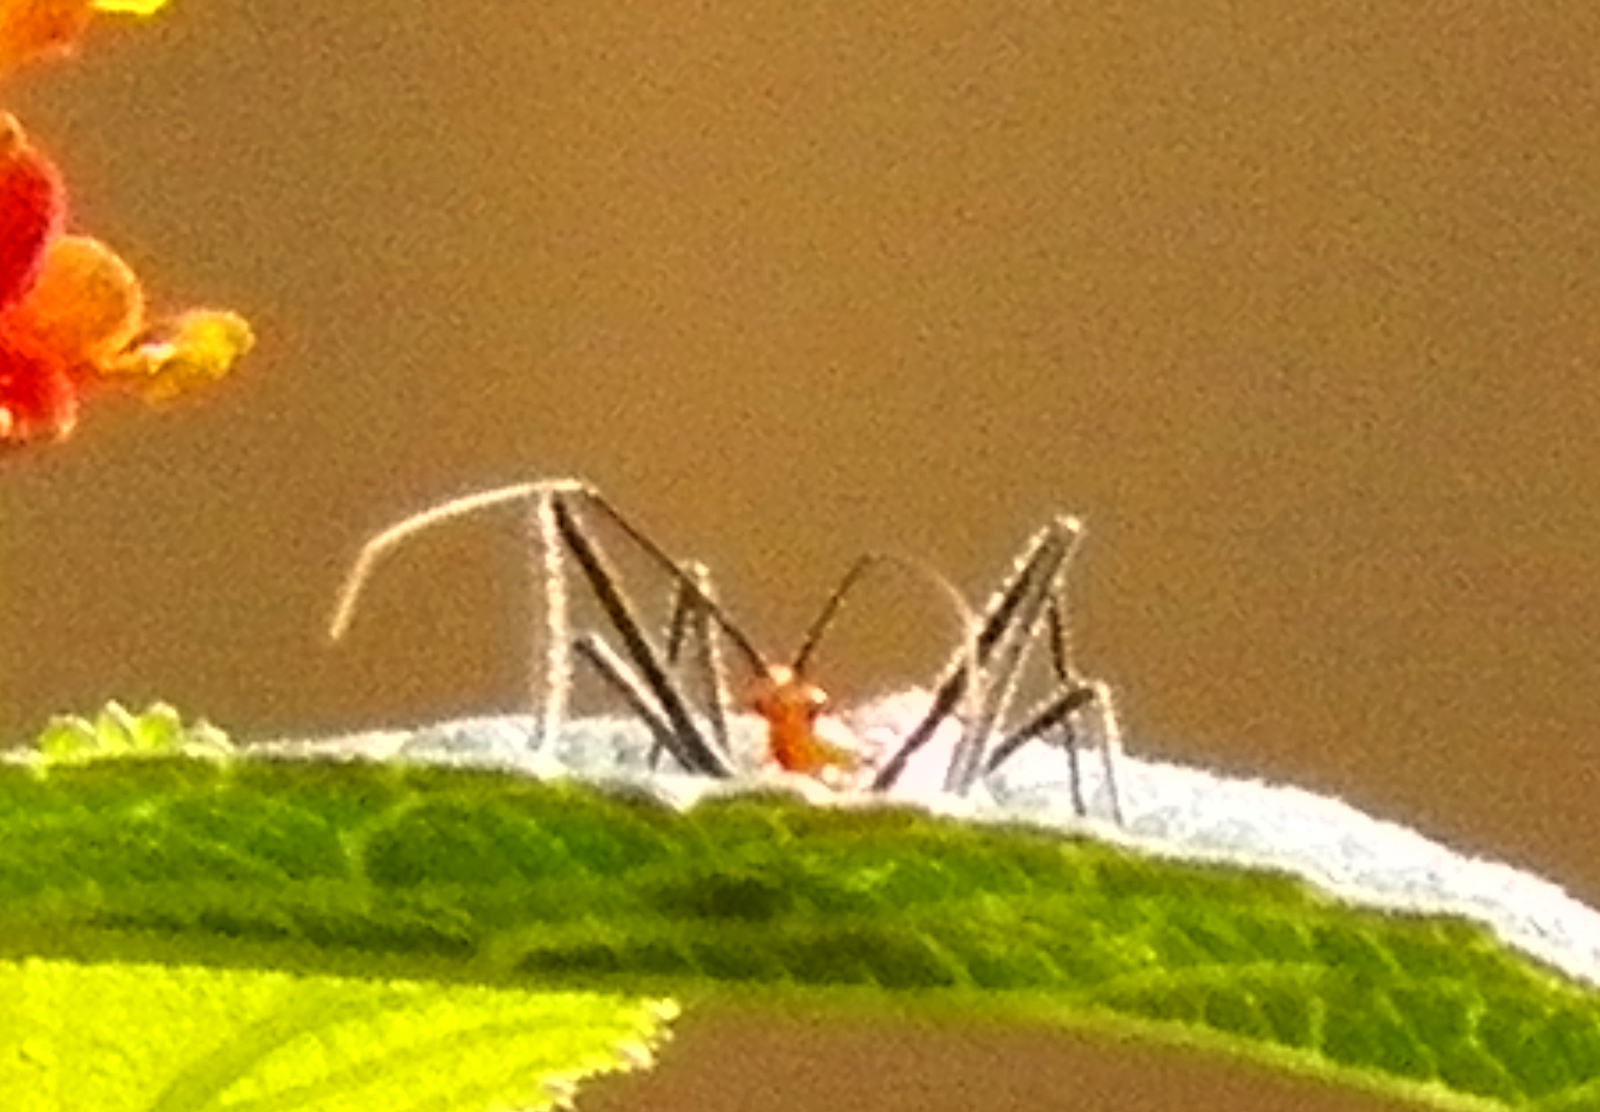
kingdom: Animalia
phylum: Arthropoda
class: Insecta
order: Hemiptera
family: Reduviidae
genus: Zelus
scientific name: Zelus longipes
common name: Milkweed assassin bug
